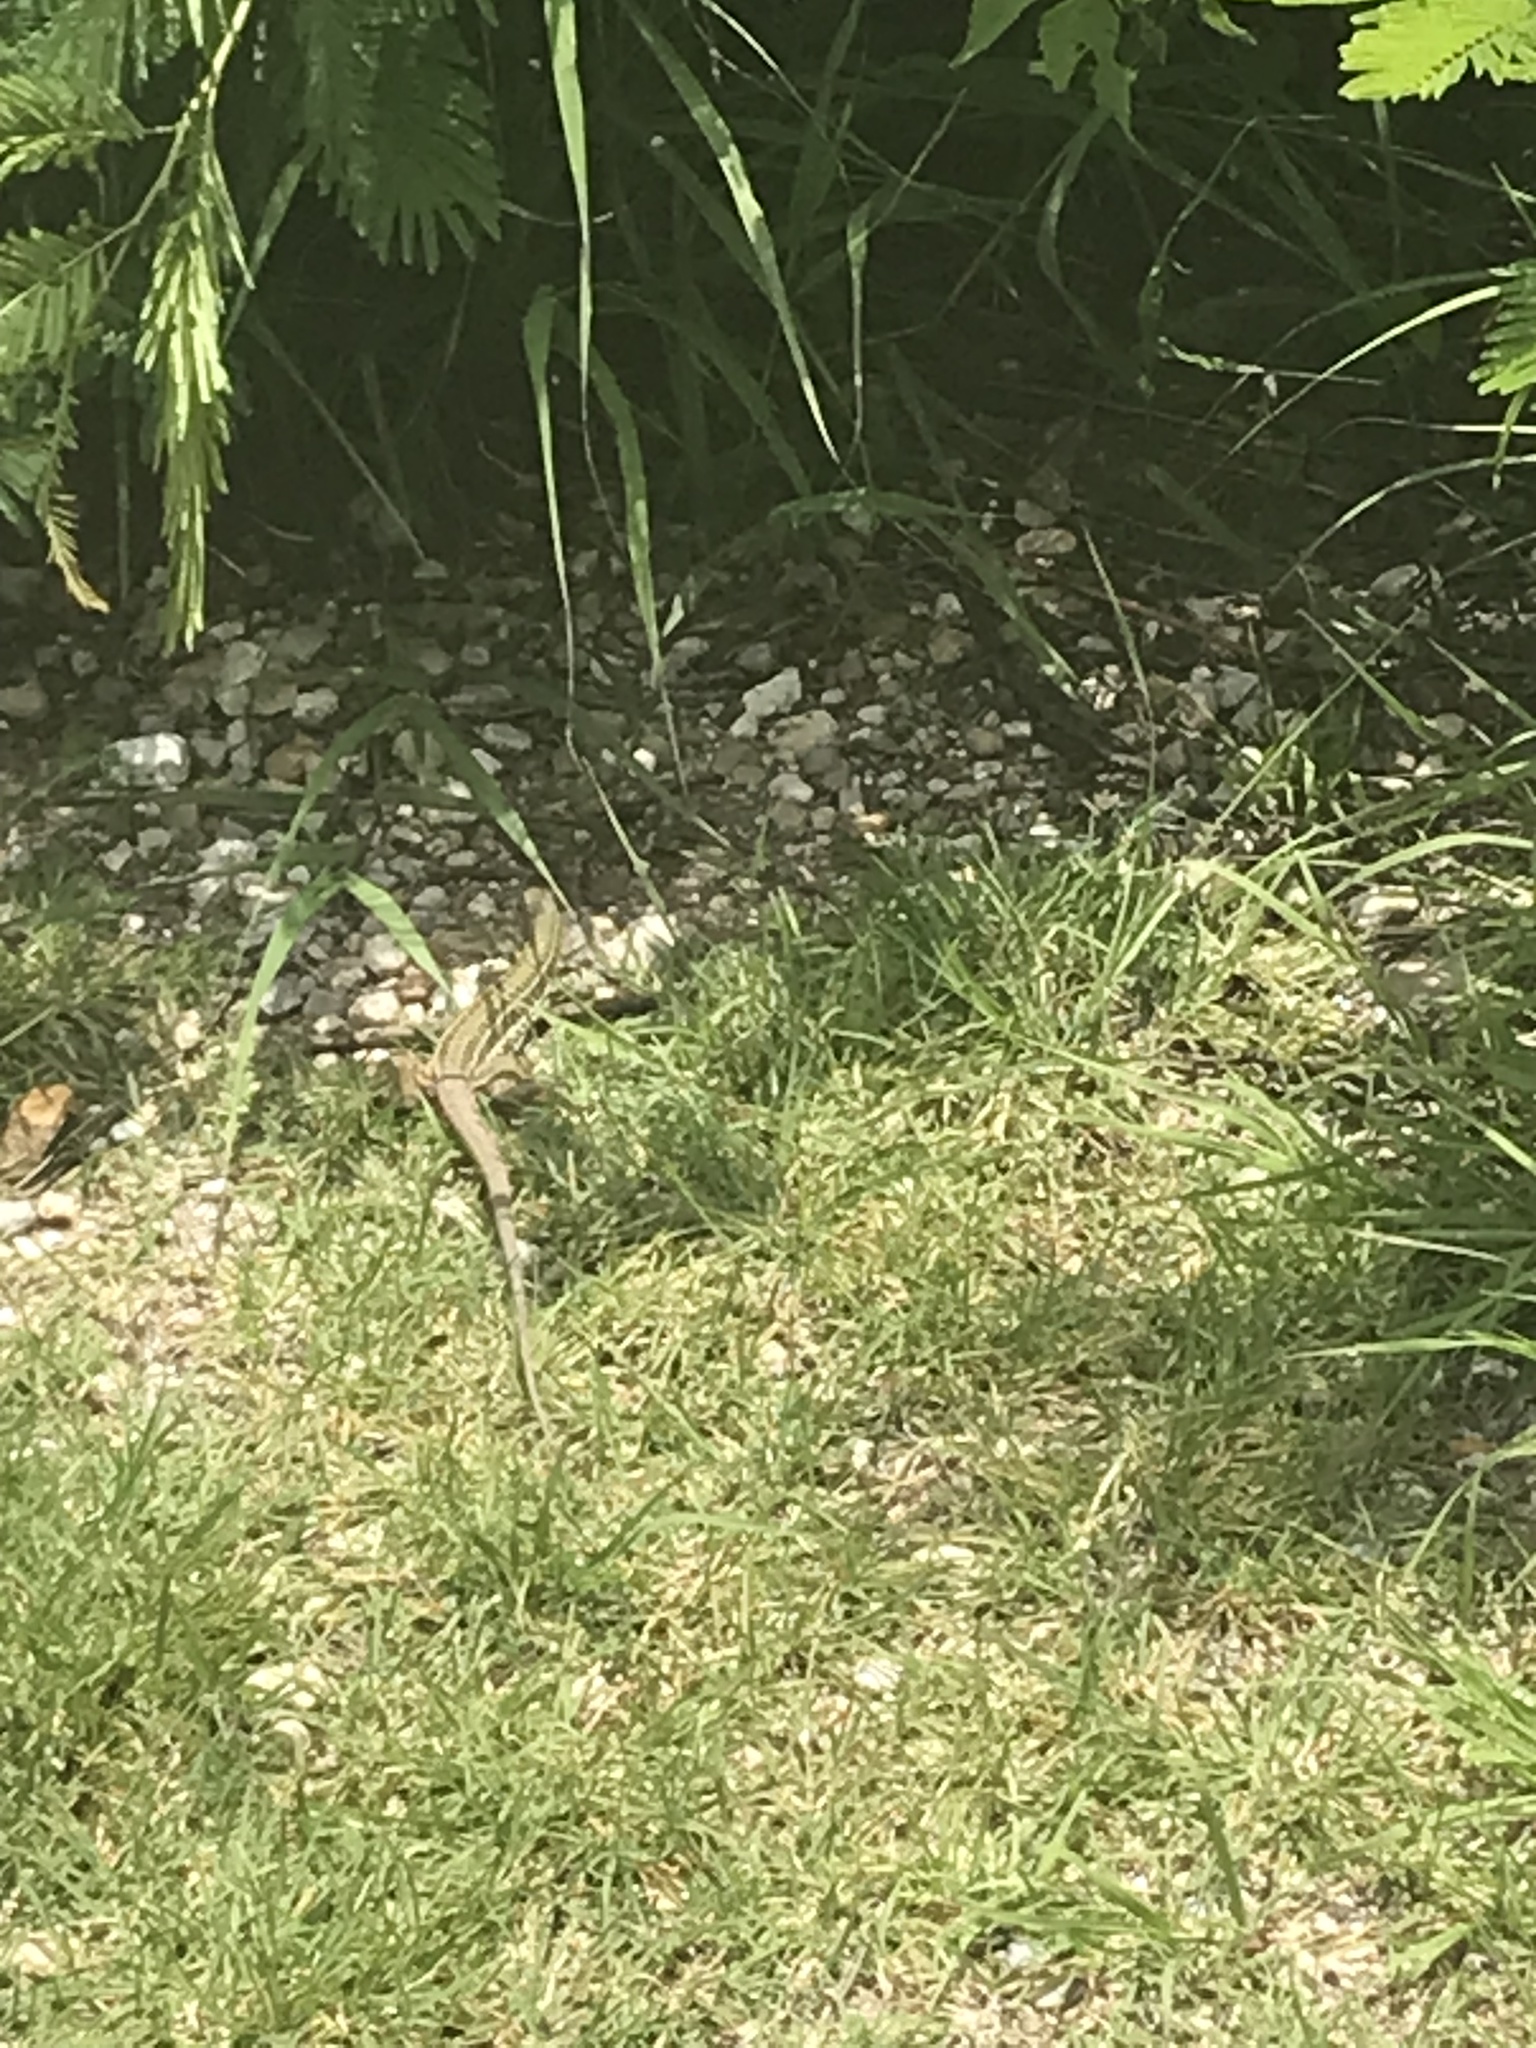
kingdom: Animalia
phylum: Chordata
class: Squamata
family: Teiidae
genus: Aspidoscelis
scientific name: Aspidoscelis sackii
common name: Giant spotted whiptail [gigas]
